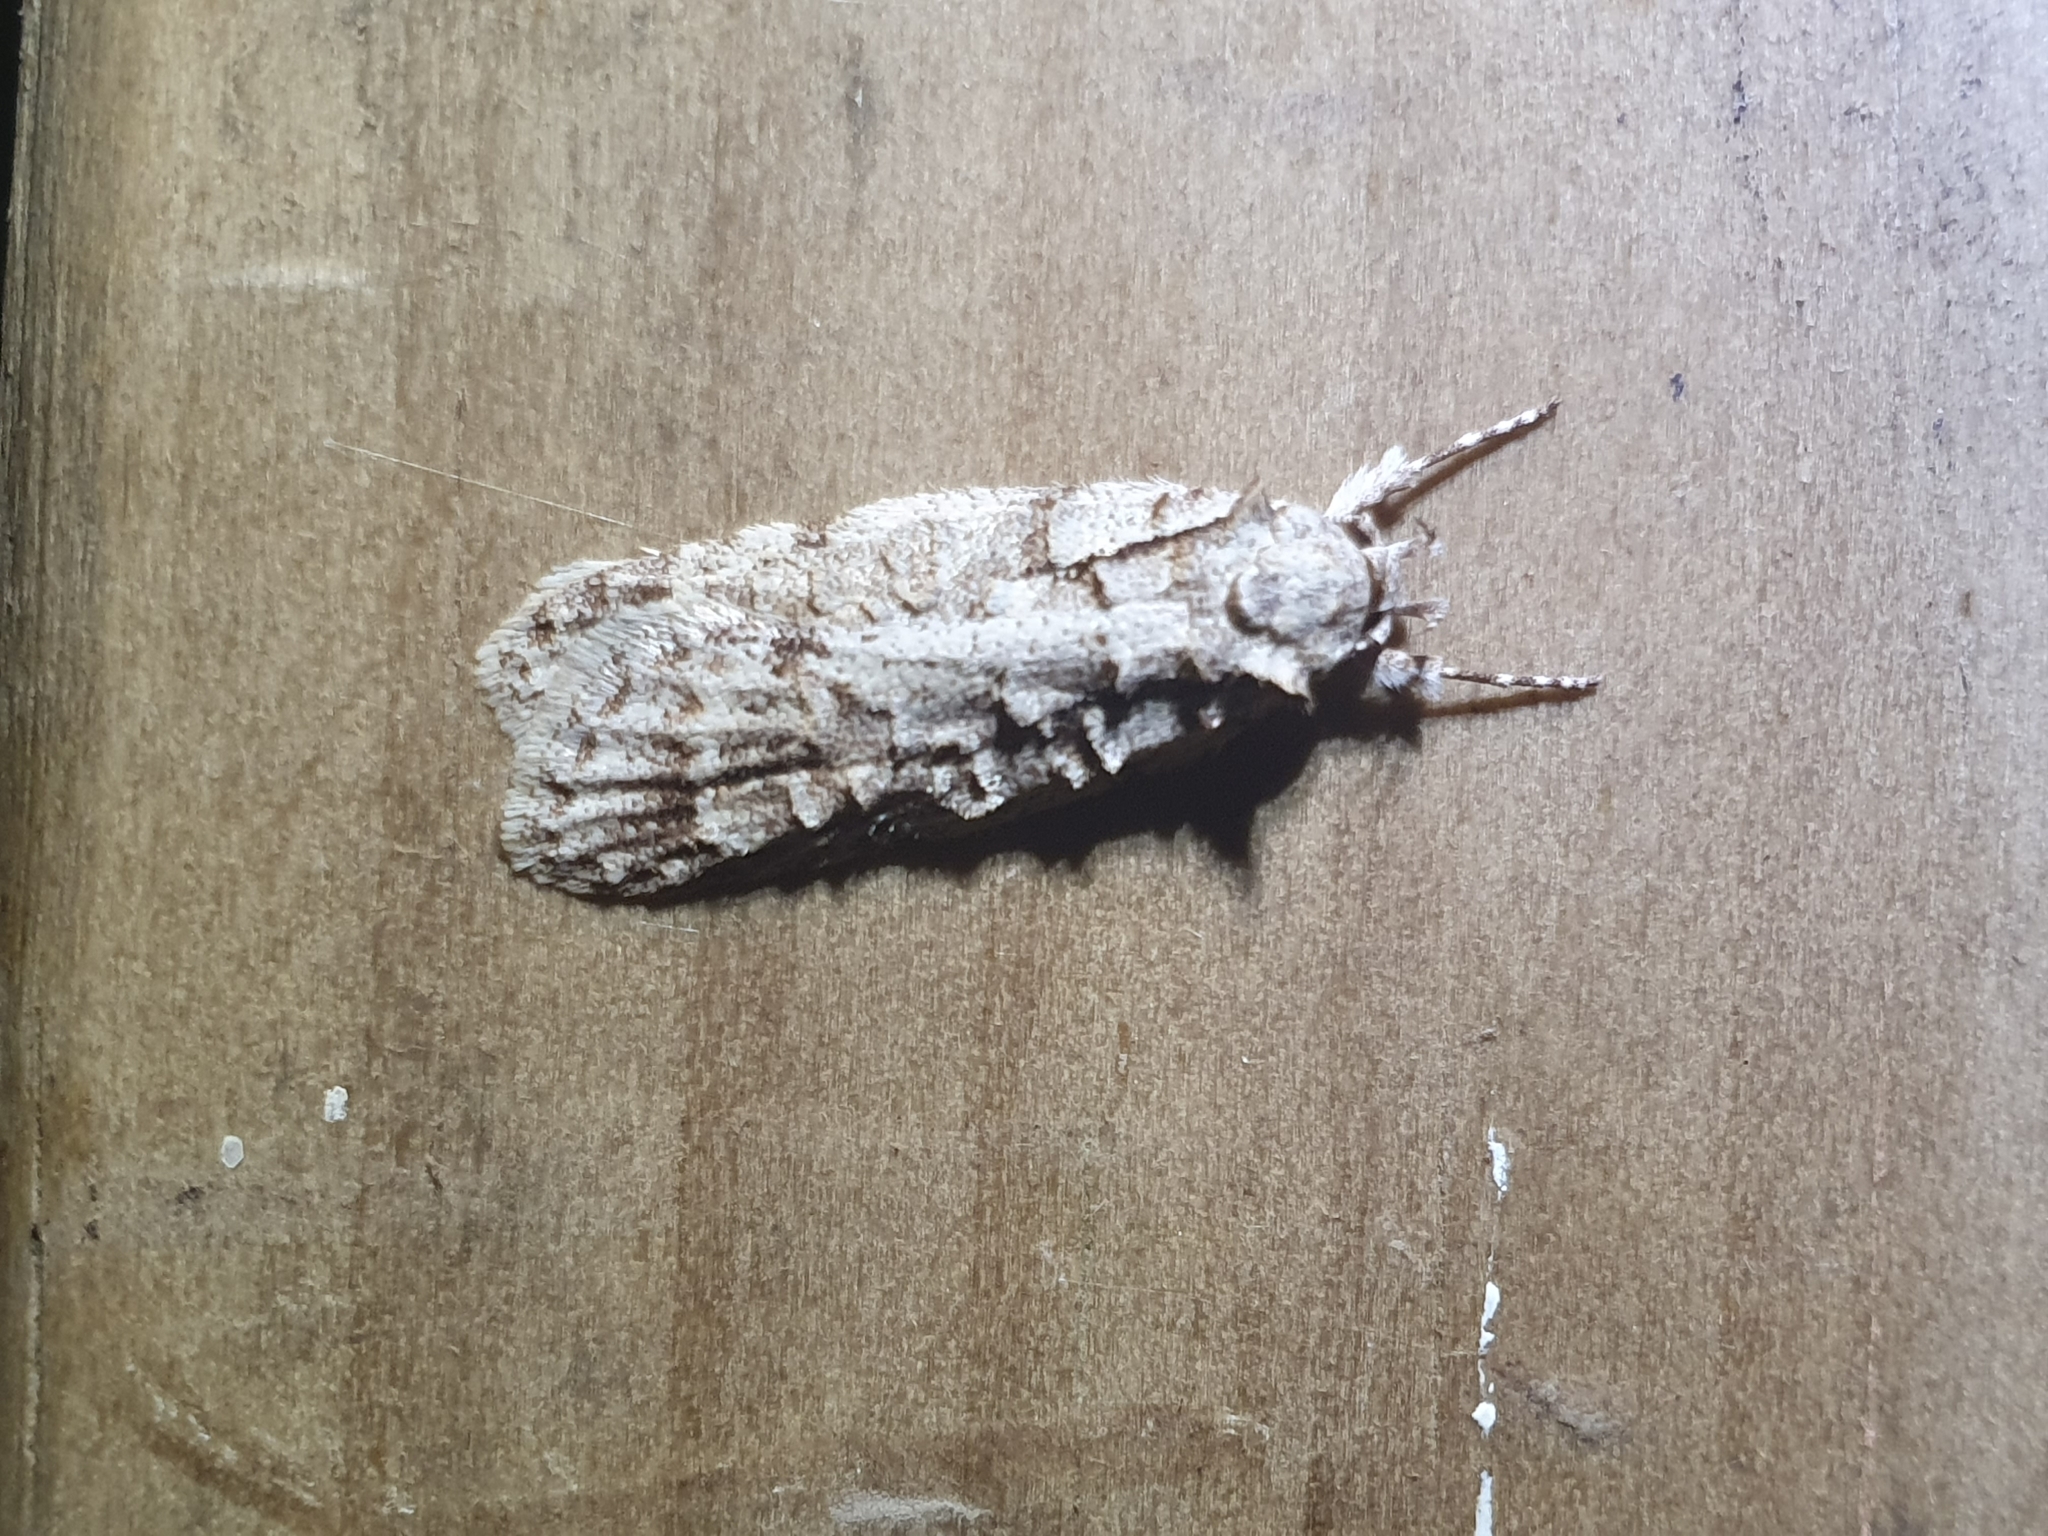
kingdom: Animalia
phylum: Arthropoda
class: Insecta
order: Lepidoptera
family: Oecophoridae
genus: Izatha
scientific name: Izatha attactella
